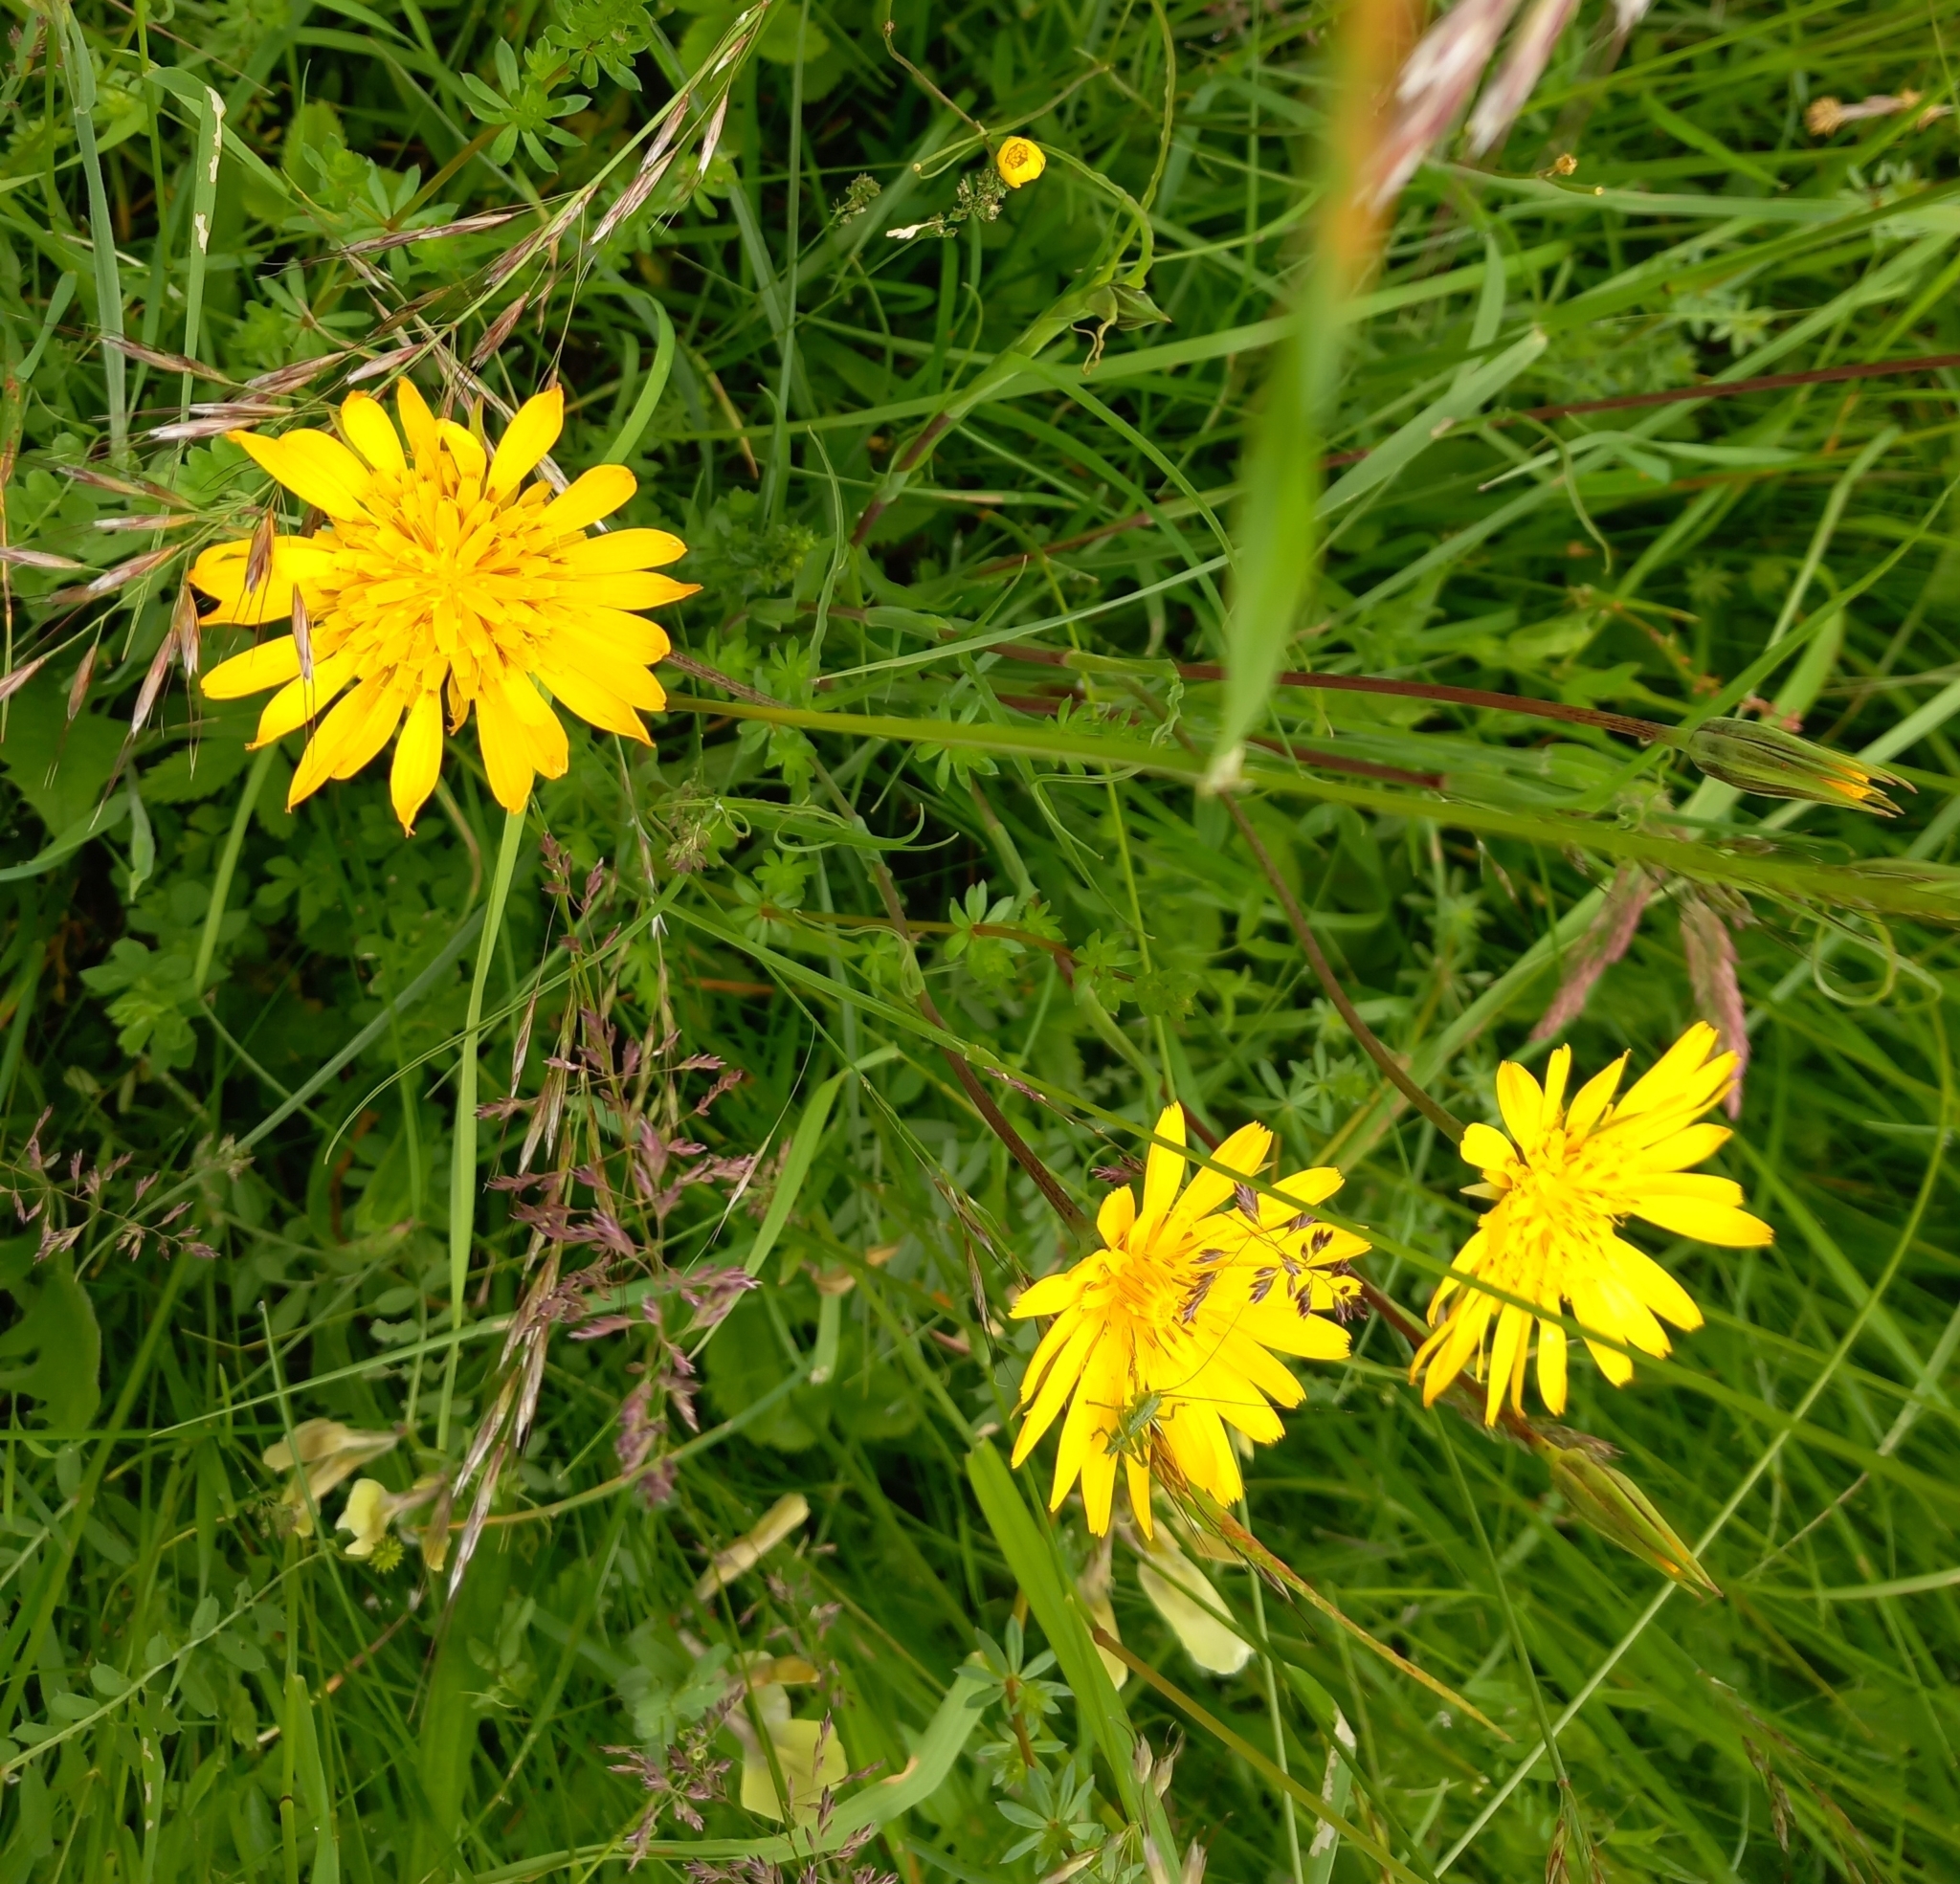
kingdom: Plantae
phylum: Tracheophyta
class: Magnoliopsida
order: Asterales
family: Asteraceae
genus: Tragopogon
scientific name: Tragopogon orientalis
